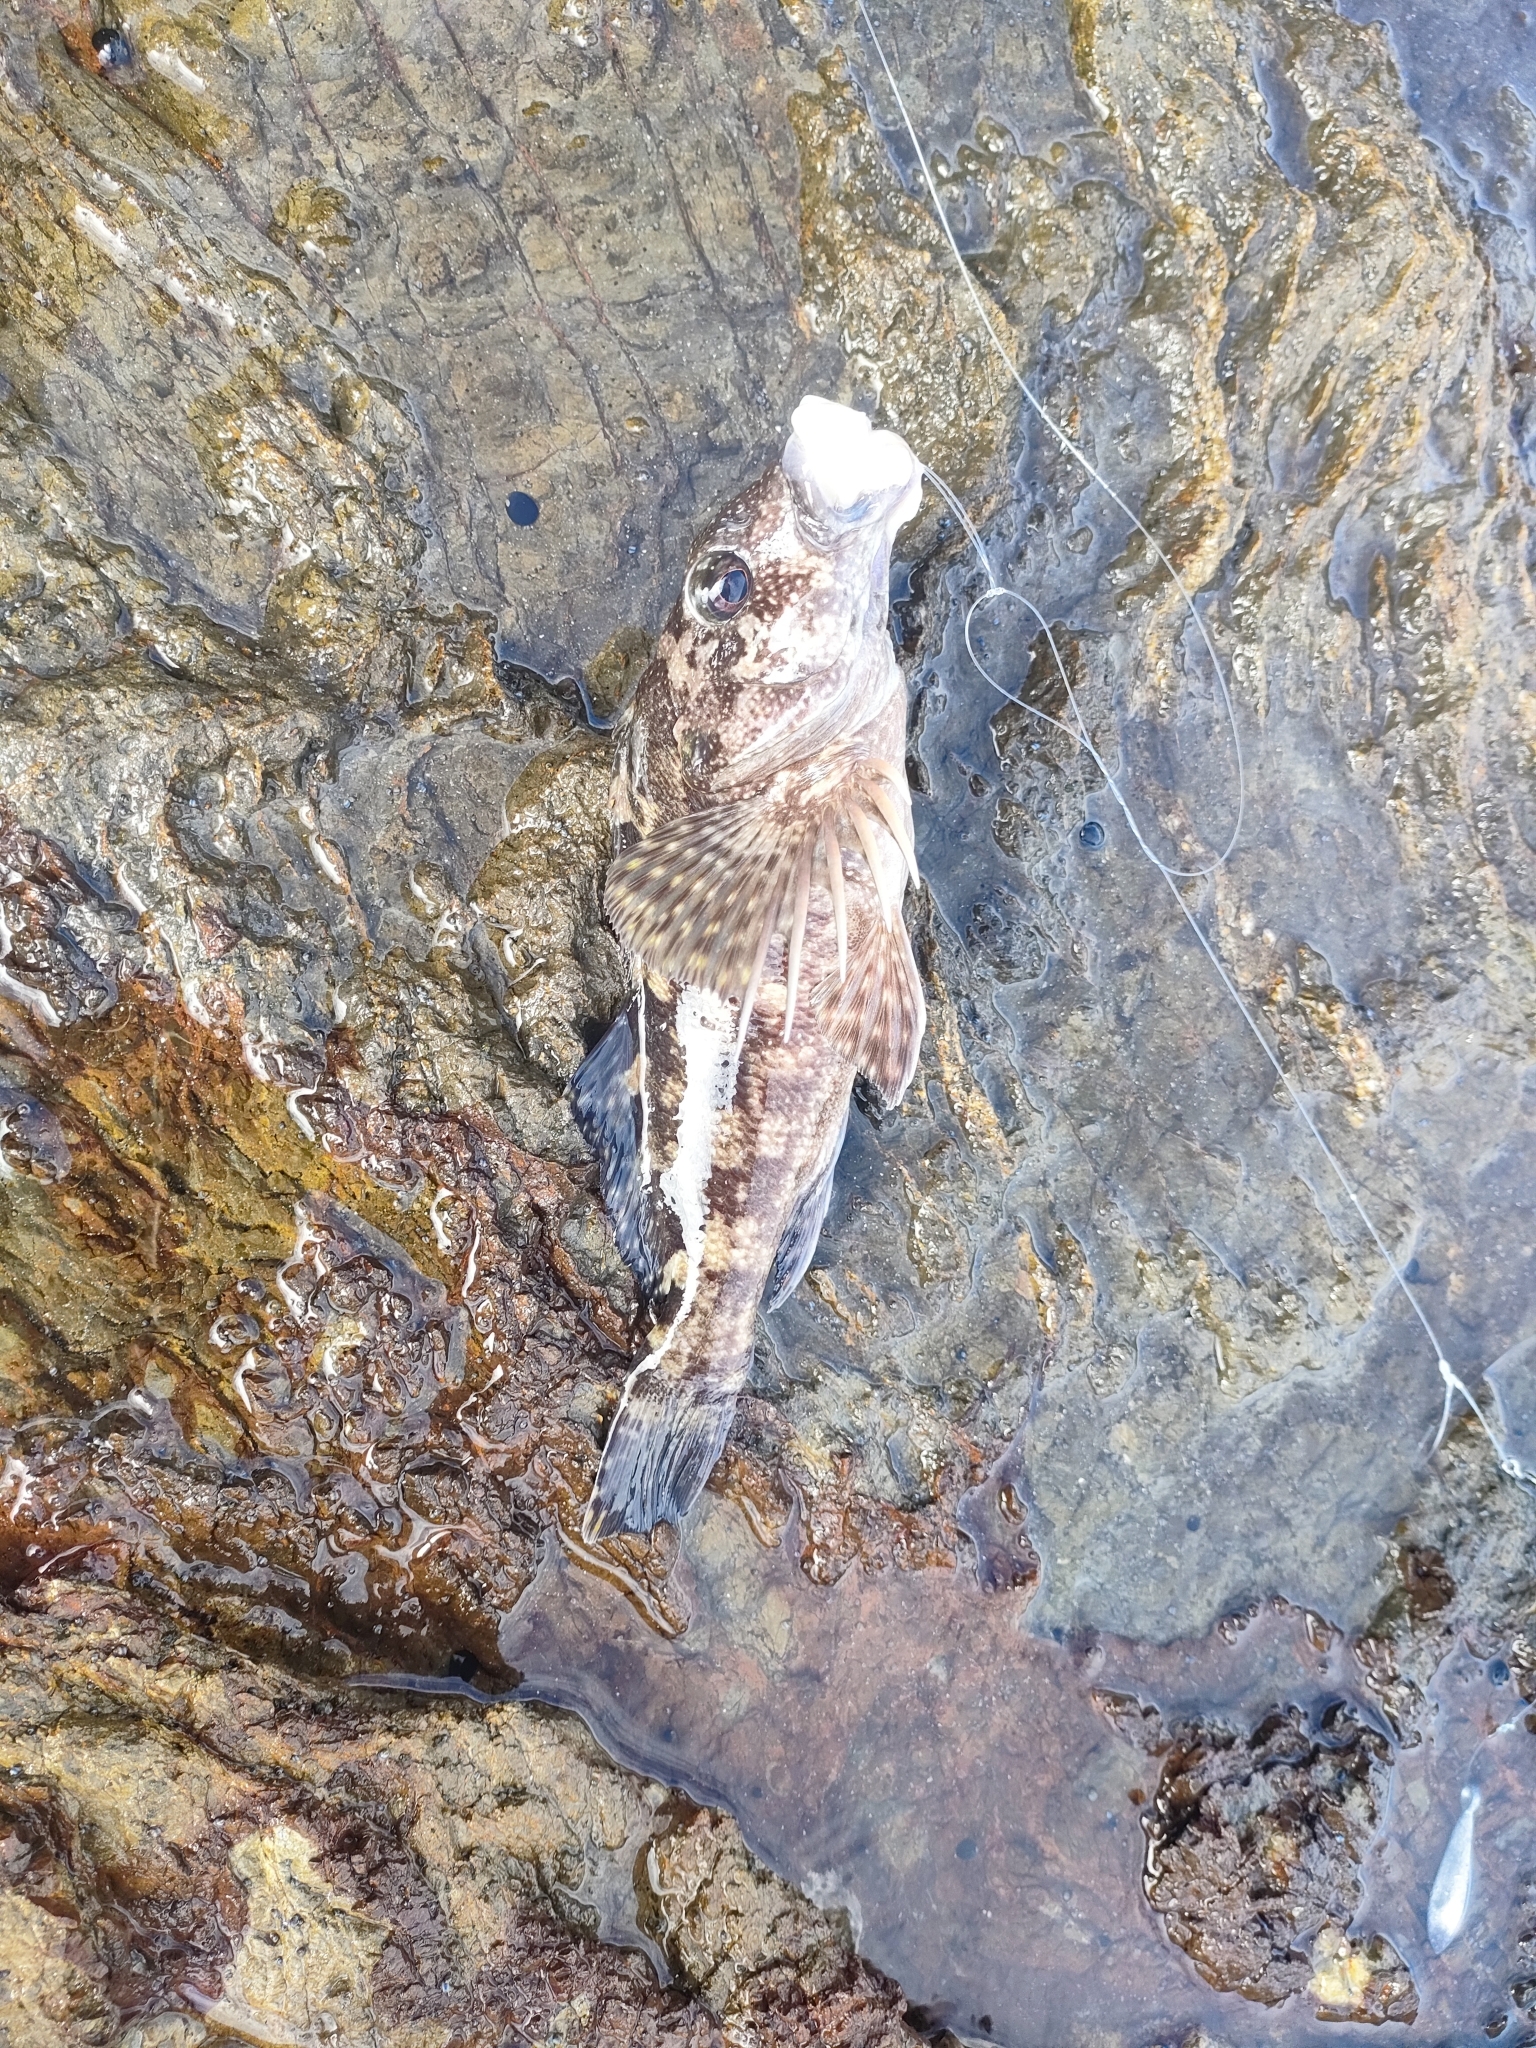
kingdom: Animalia
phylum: Chordata
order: Perciformes
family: Chironemidae
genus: Chironemus
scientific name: Chironemus marmoratus
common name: Kelpfish
